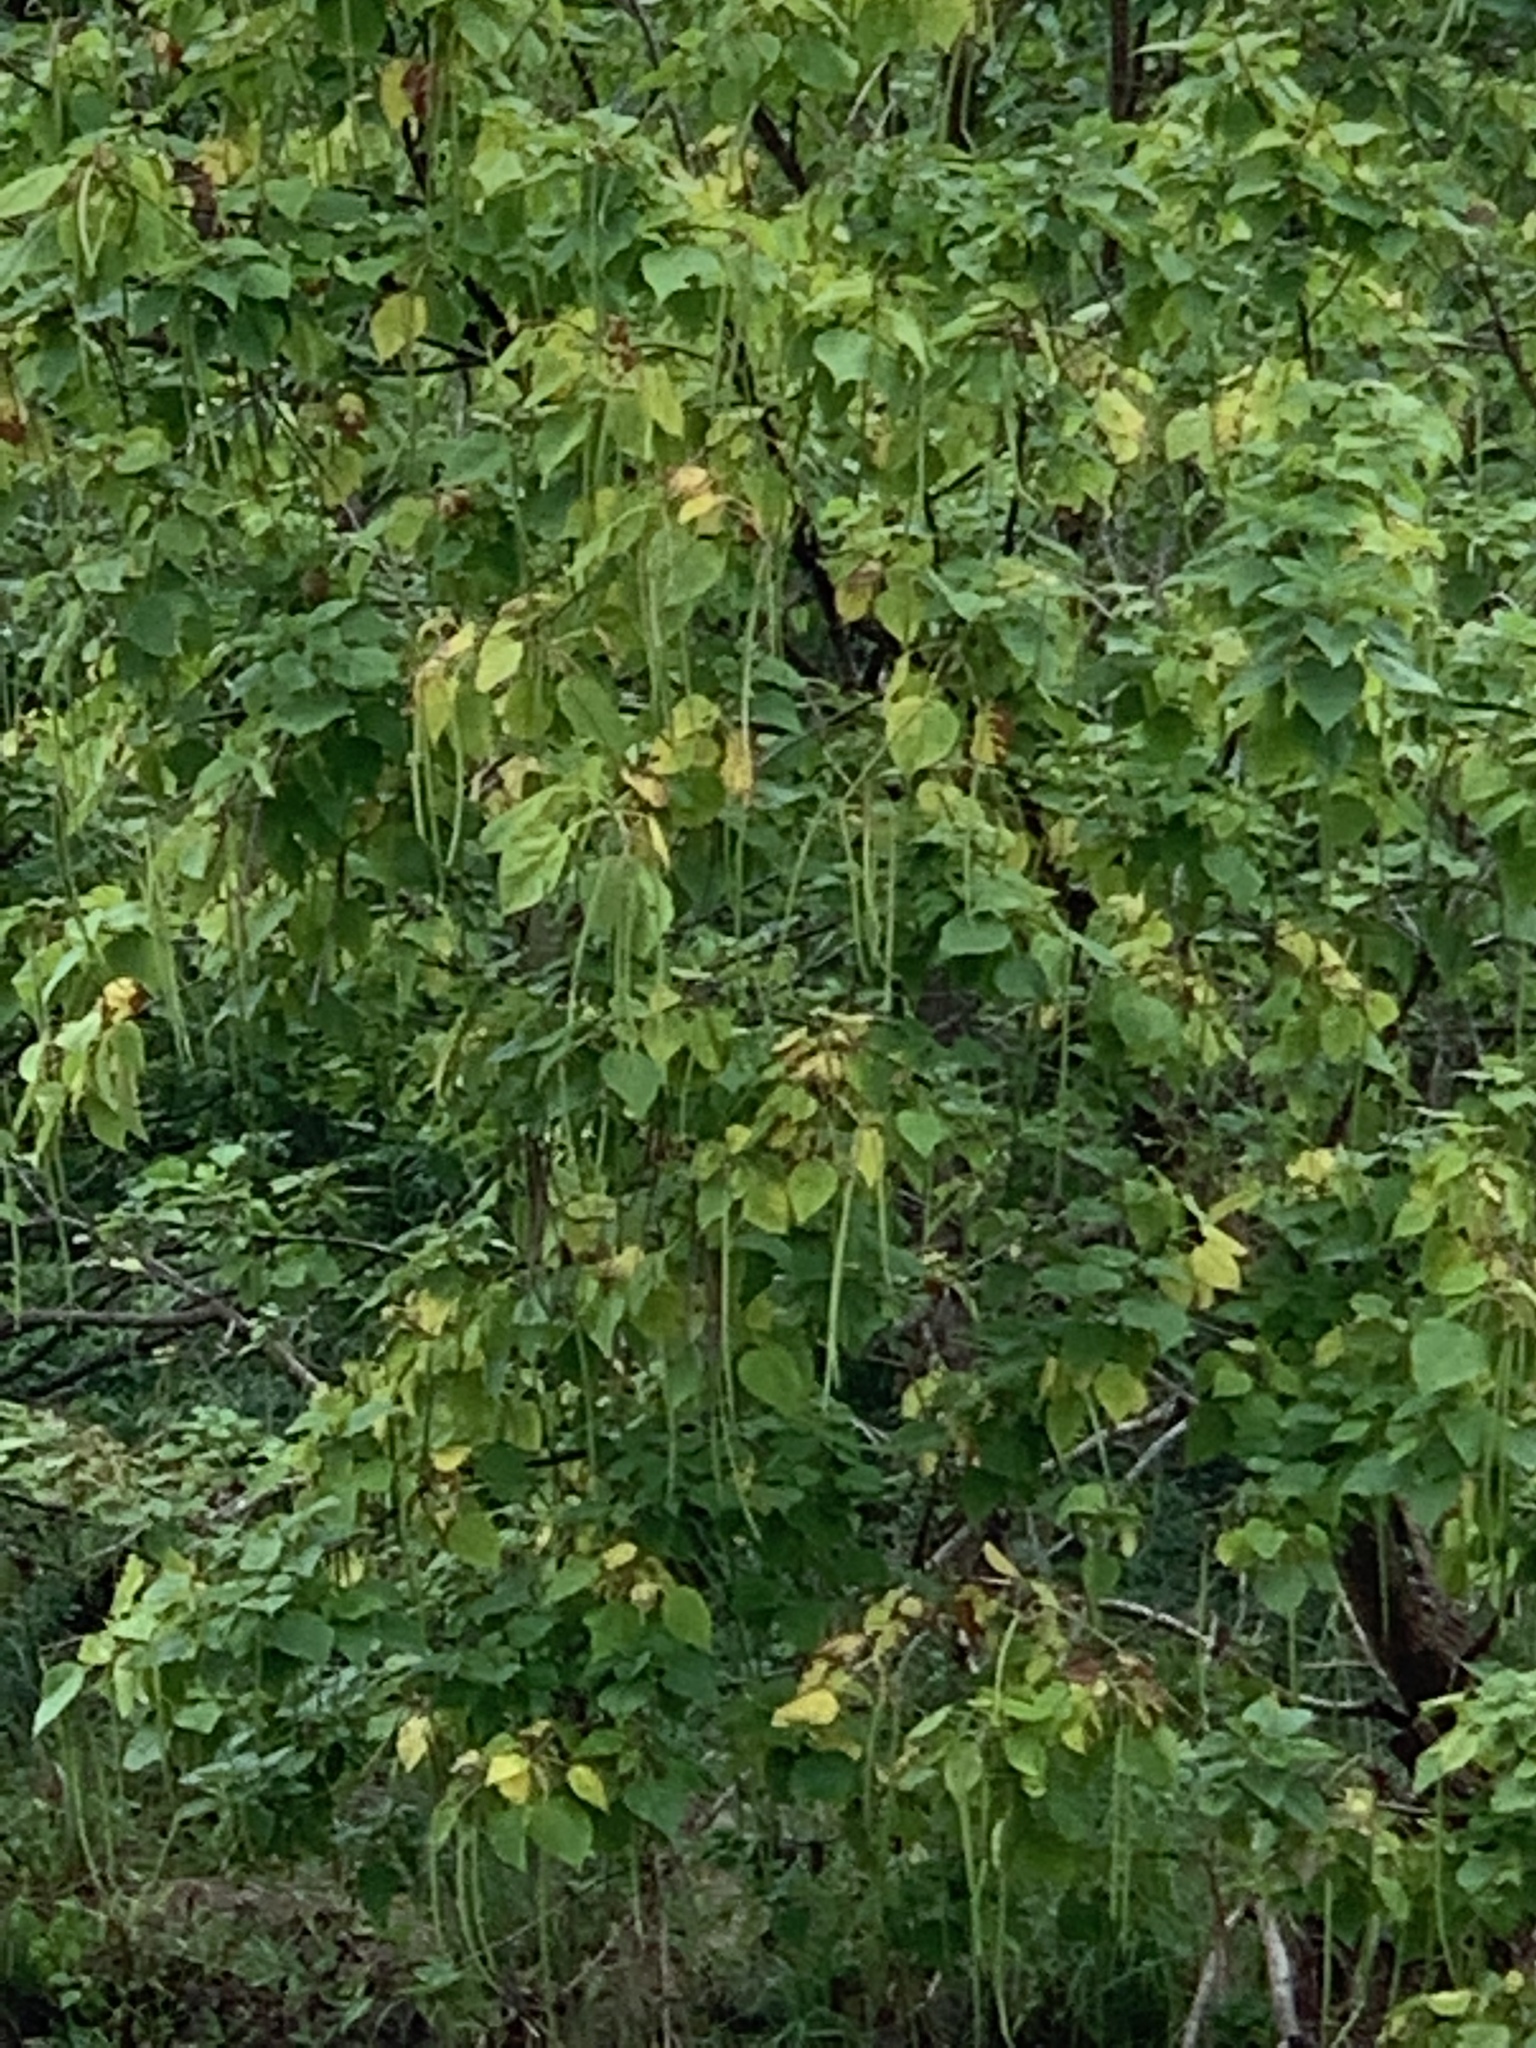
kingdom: Plantae
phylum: Tracheophyta
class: Magnoliopsida
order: Lamiales
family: Bignoniaceae
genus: Catalpa
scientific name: Catalpa speciosa
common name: Northern catalpa
